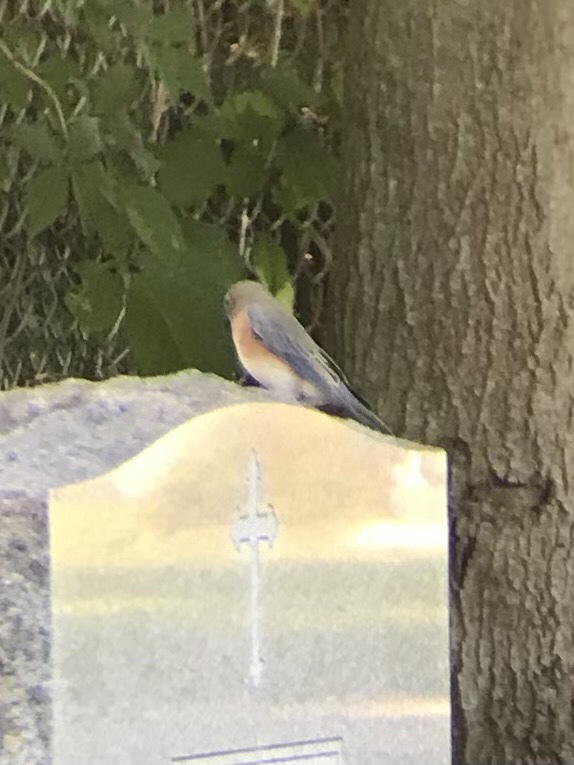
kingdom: Animalia
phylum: Chordata
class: Aves
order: Passeriformes
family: Turdidae
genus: Sialia
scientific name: Sialia sialis
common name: Eastern bluebird
